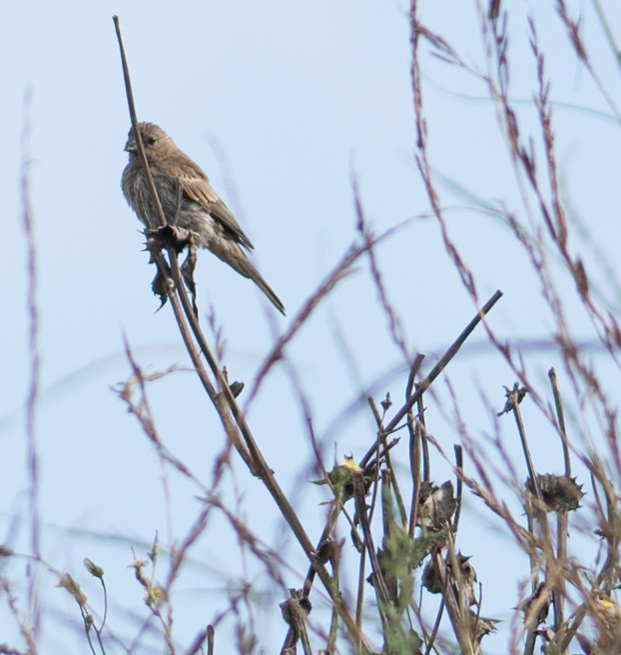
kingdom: Animalia
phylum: Chordata
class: Aves
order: Passeriformes
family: Fringillidae
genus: Haemorhous
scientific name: Haemorhous mexicanus
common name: House finch
